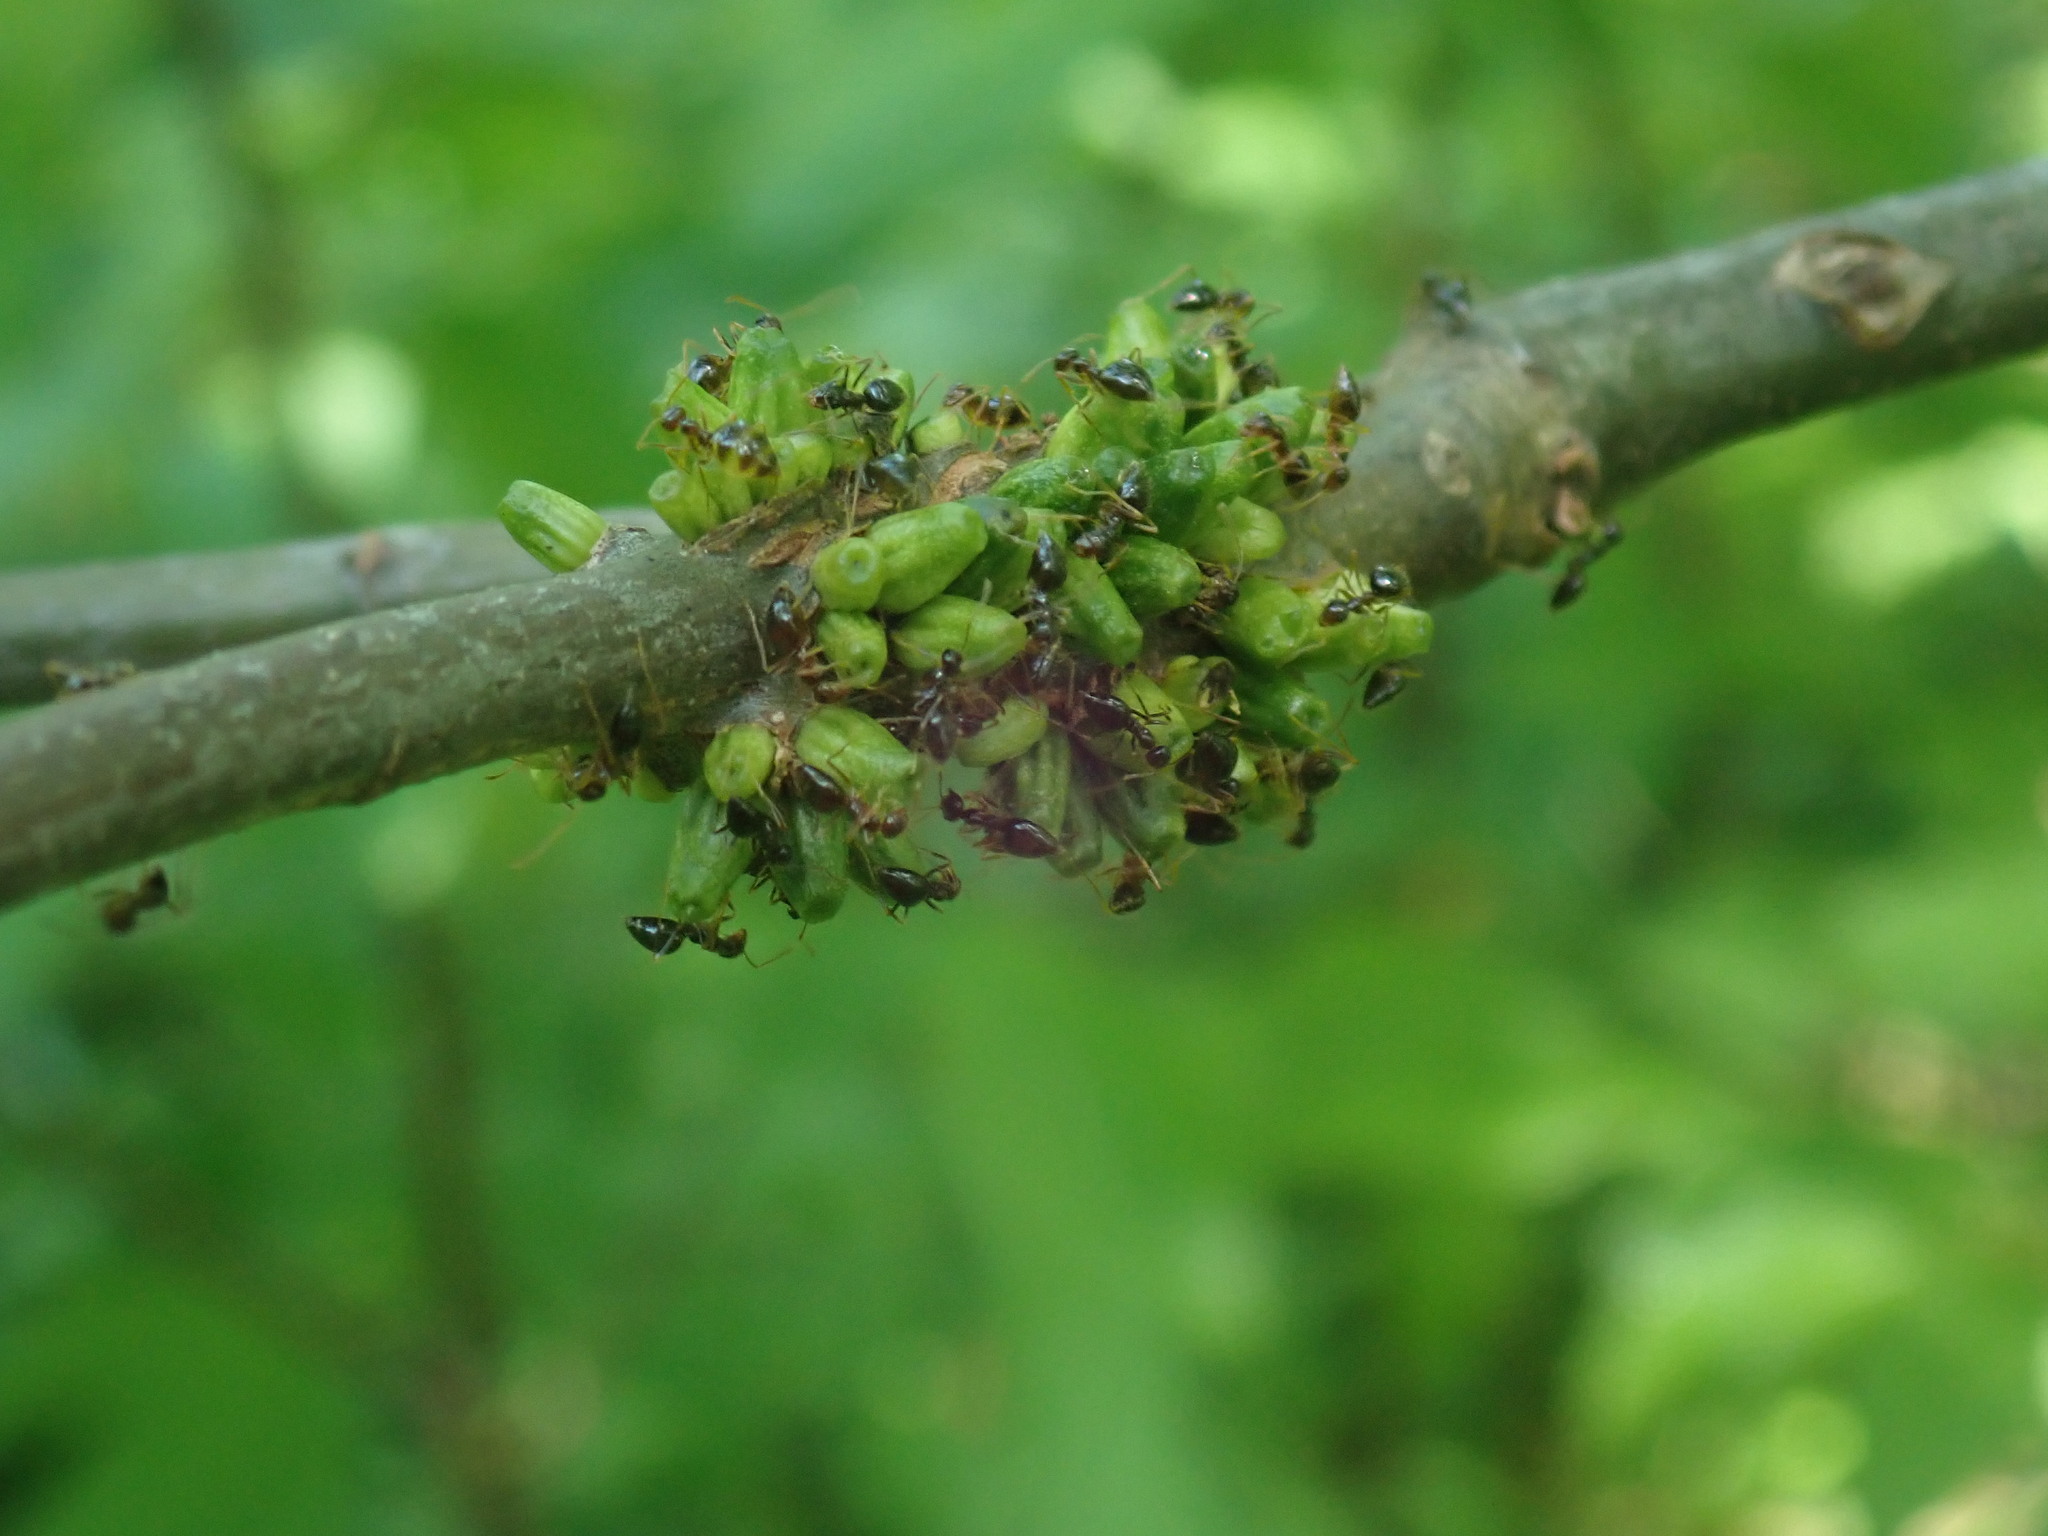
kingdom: Animalia
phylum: Arthropoda
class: Insecta
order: Hymenoptera
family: Cynipidae
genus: Callirhytis
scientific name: Callirhytis
